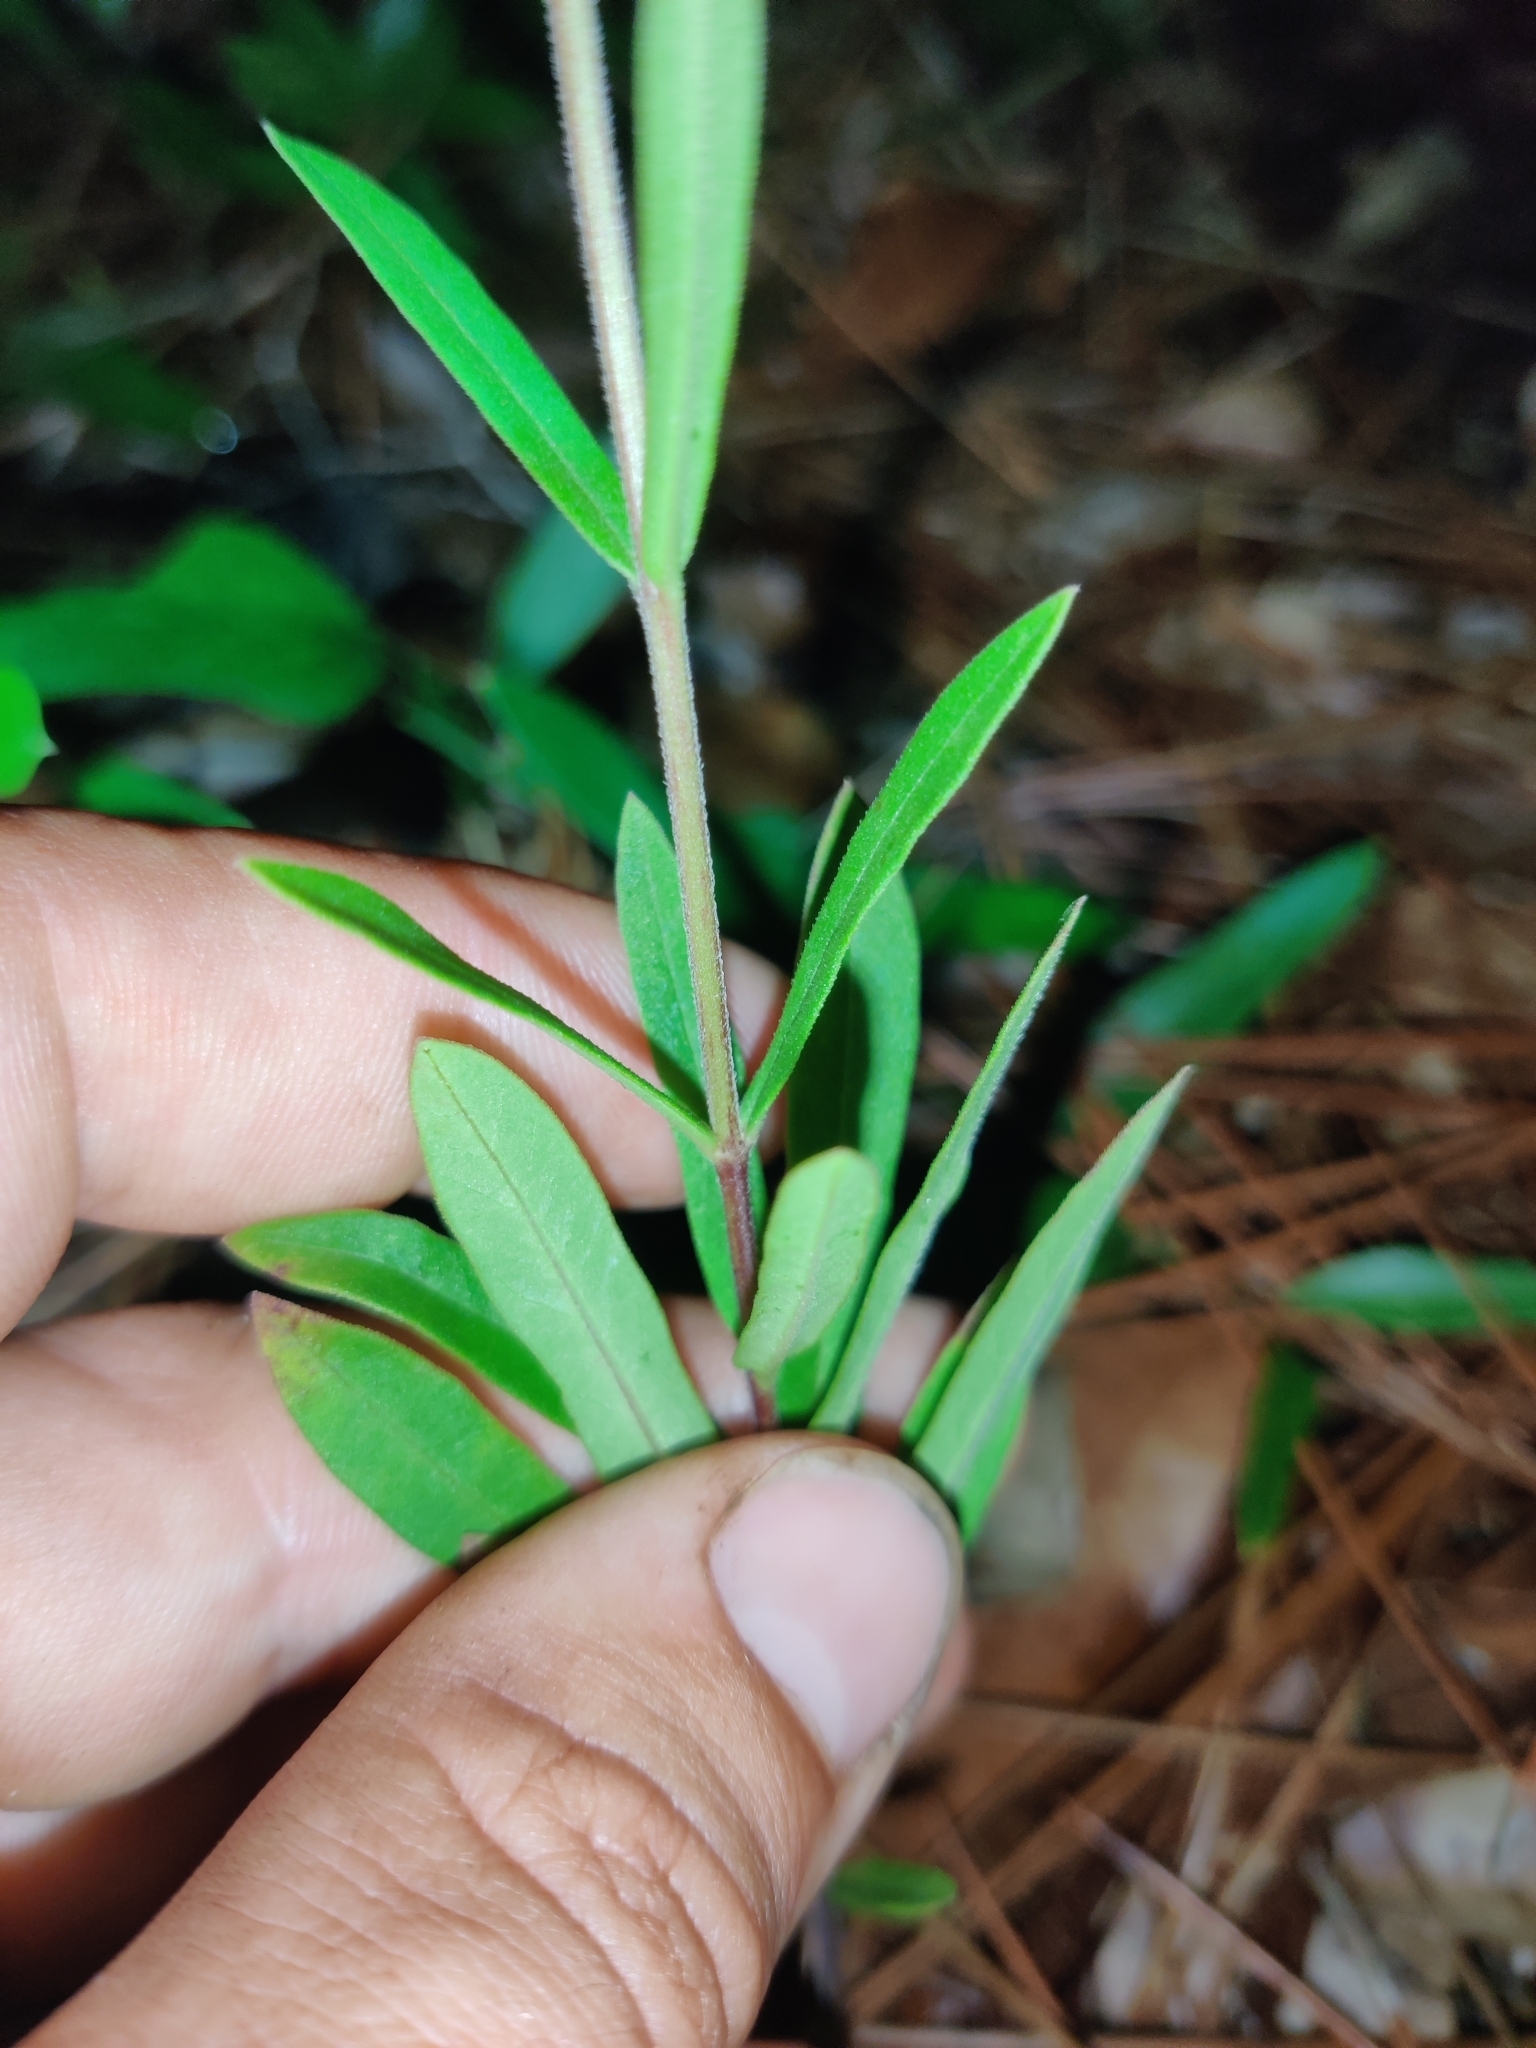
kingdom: Plantae
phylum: Tracheophyta
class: Magnoliopsida
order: Gentianales
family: Apocynaceae
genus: Asclepias
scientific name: Asclepias pedicellata
